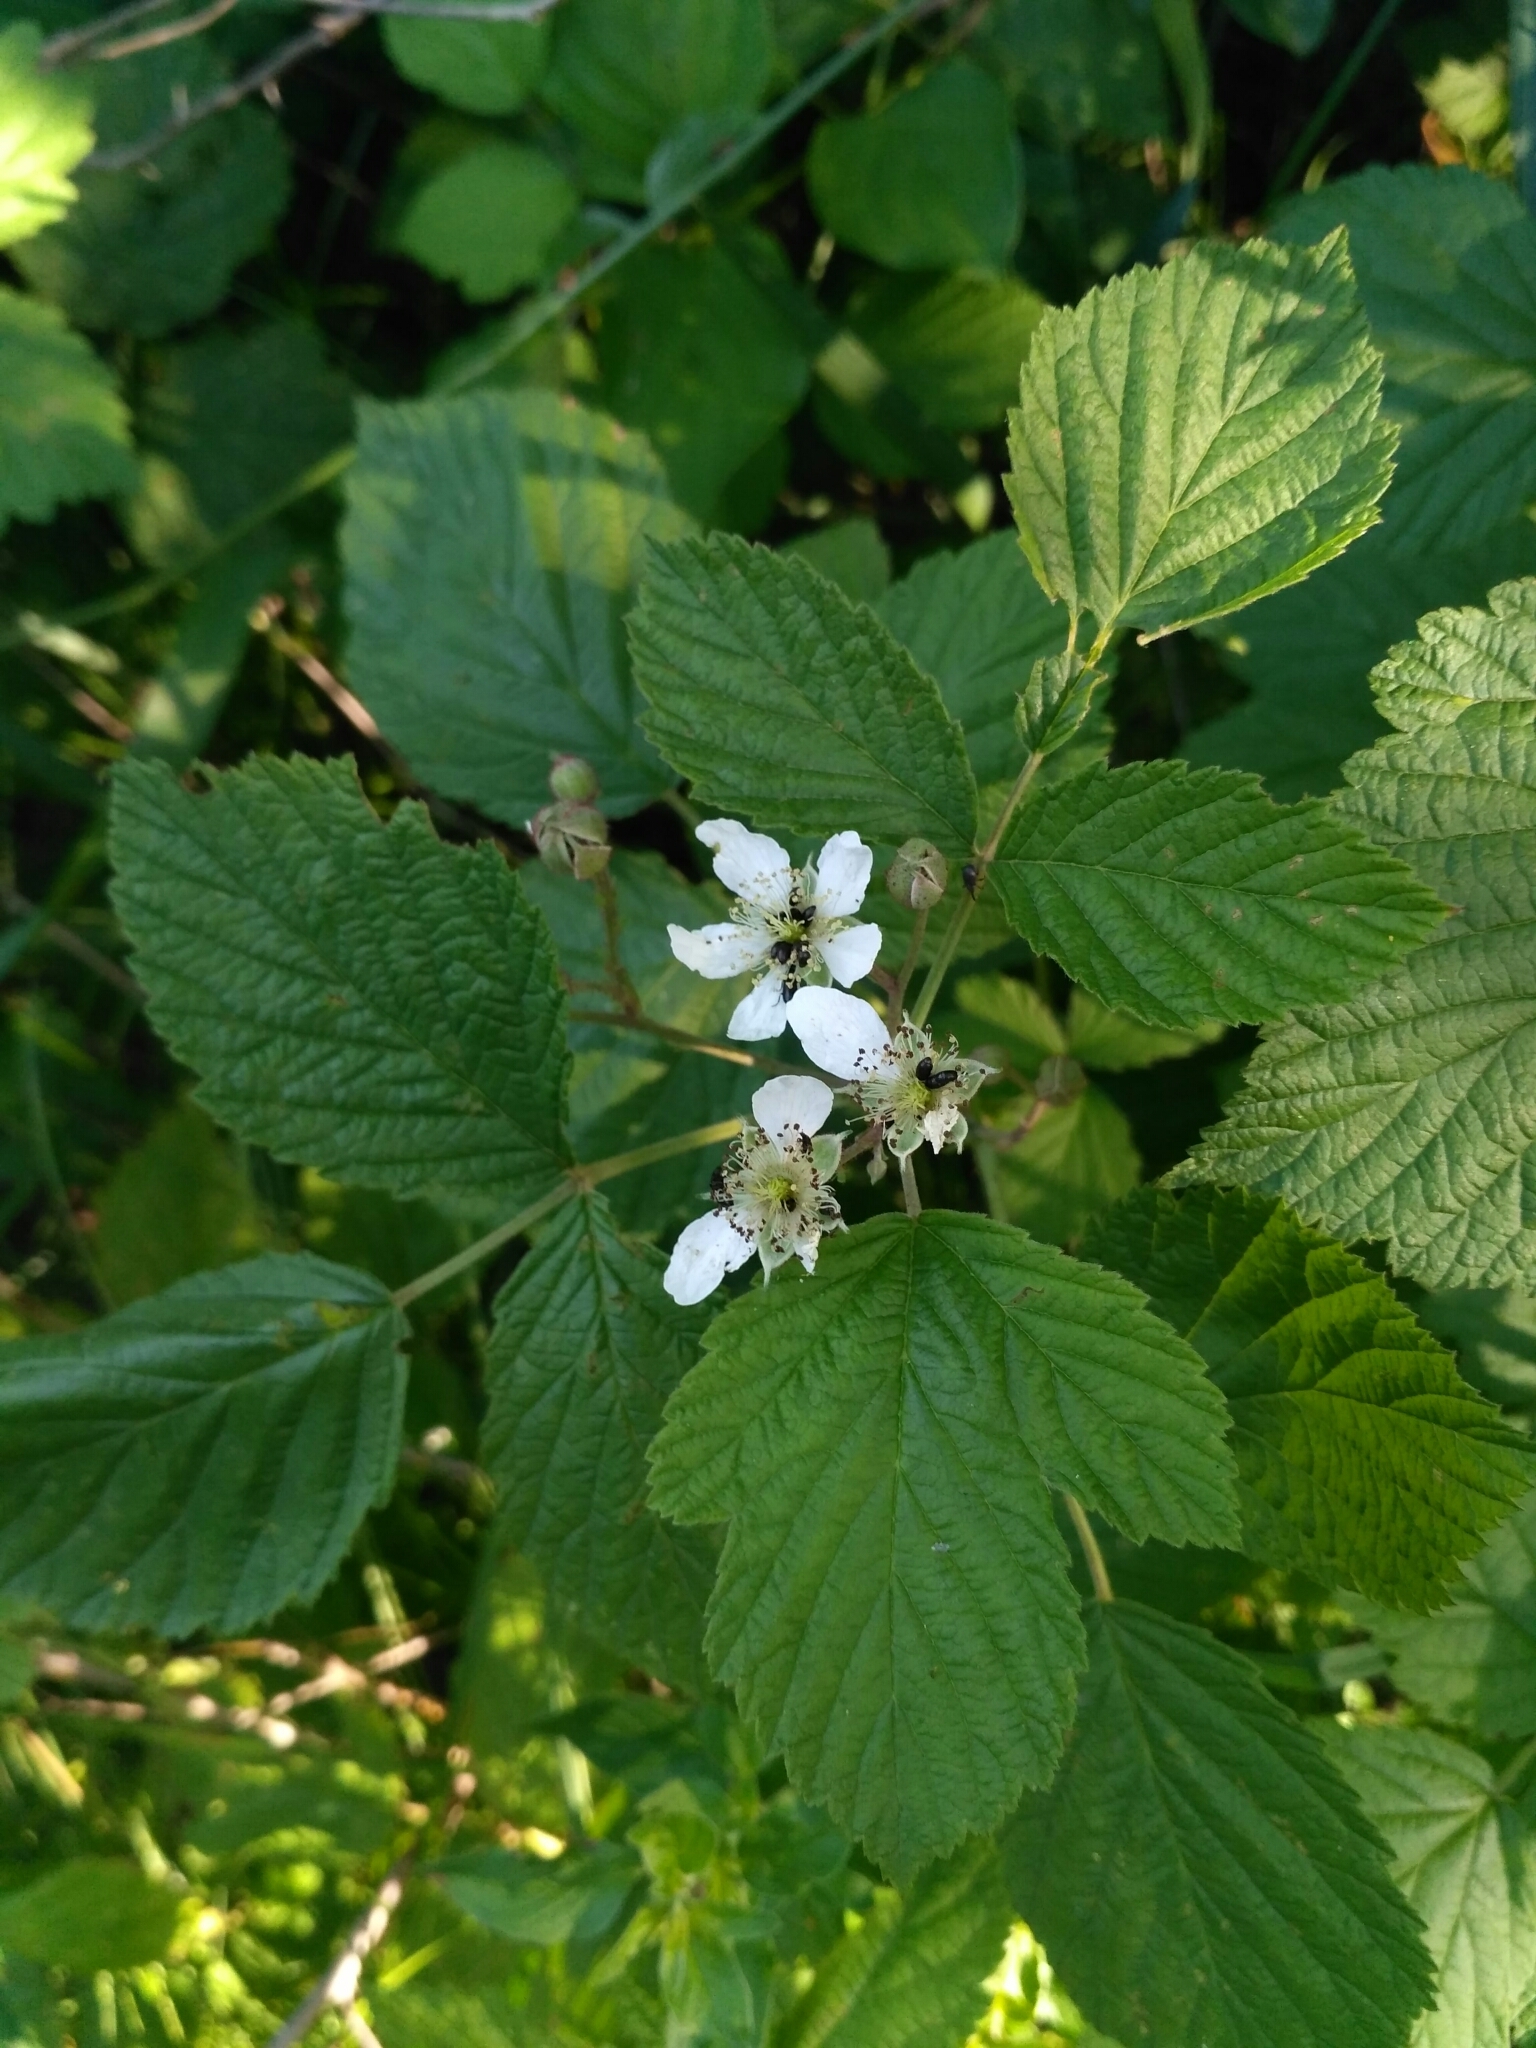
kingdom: Plantae
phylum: Tracheophyta
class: Magnoliopsida
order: Rosales
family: Rosaceae
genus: Rubus
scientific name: Rubus caesius
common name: Dewberry
